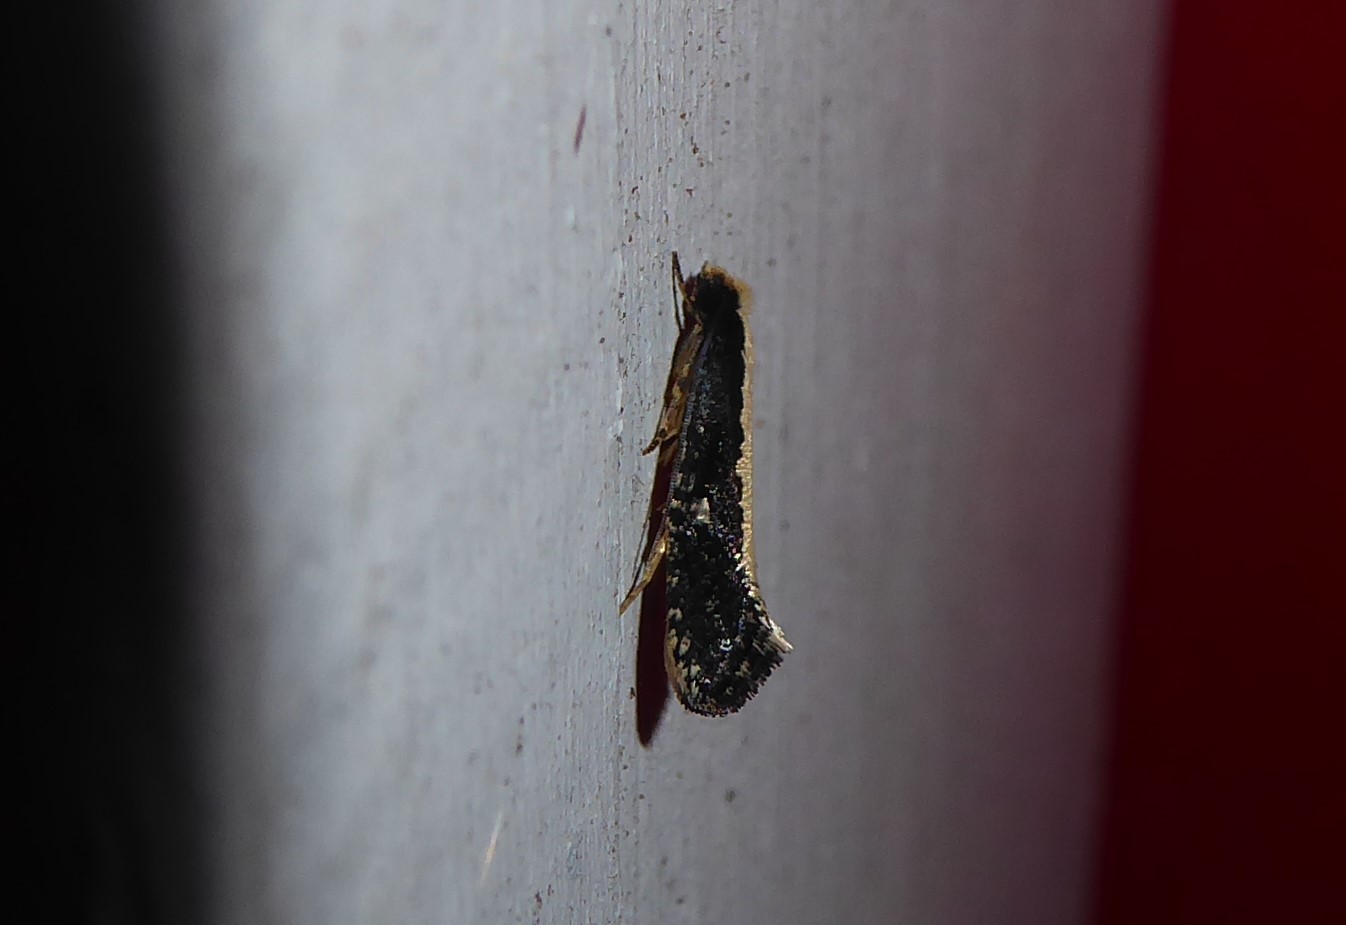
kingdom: Animalia
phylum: Arthropoda
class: Insecta
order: Lepidoptera
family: Tineidae
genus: Monopis
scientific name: Monopis ethelella
